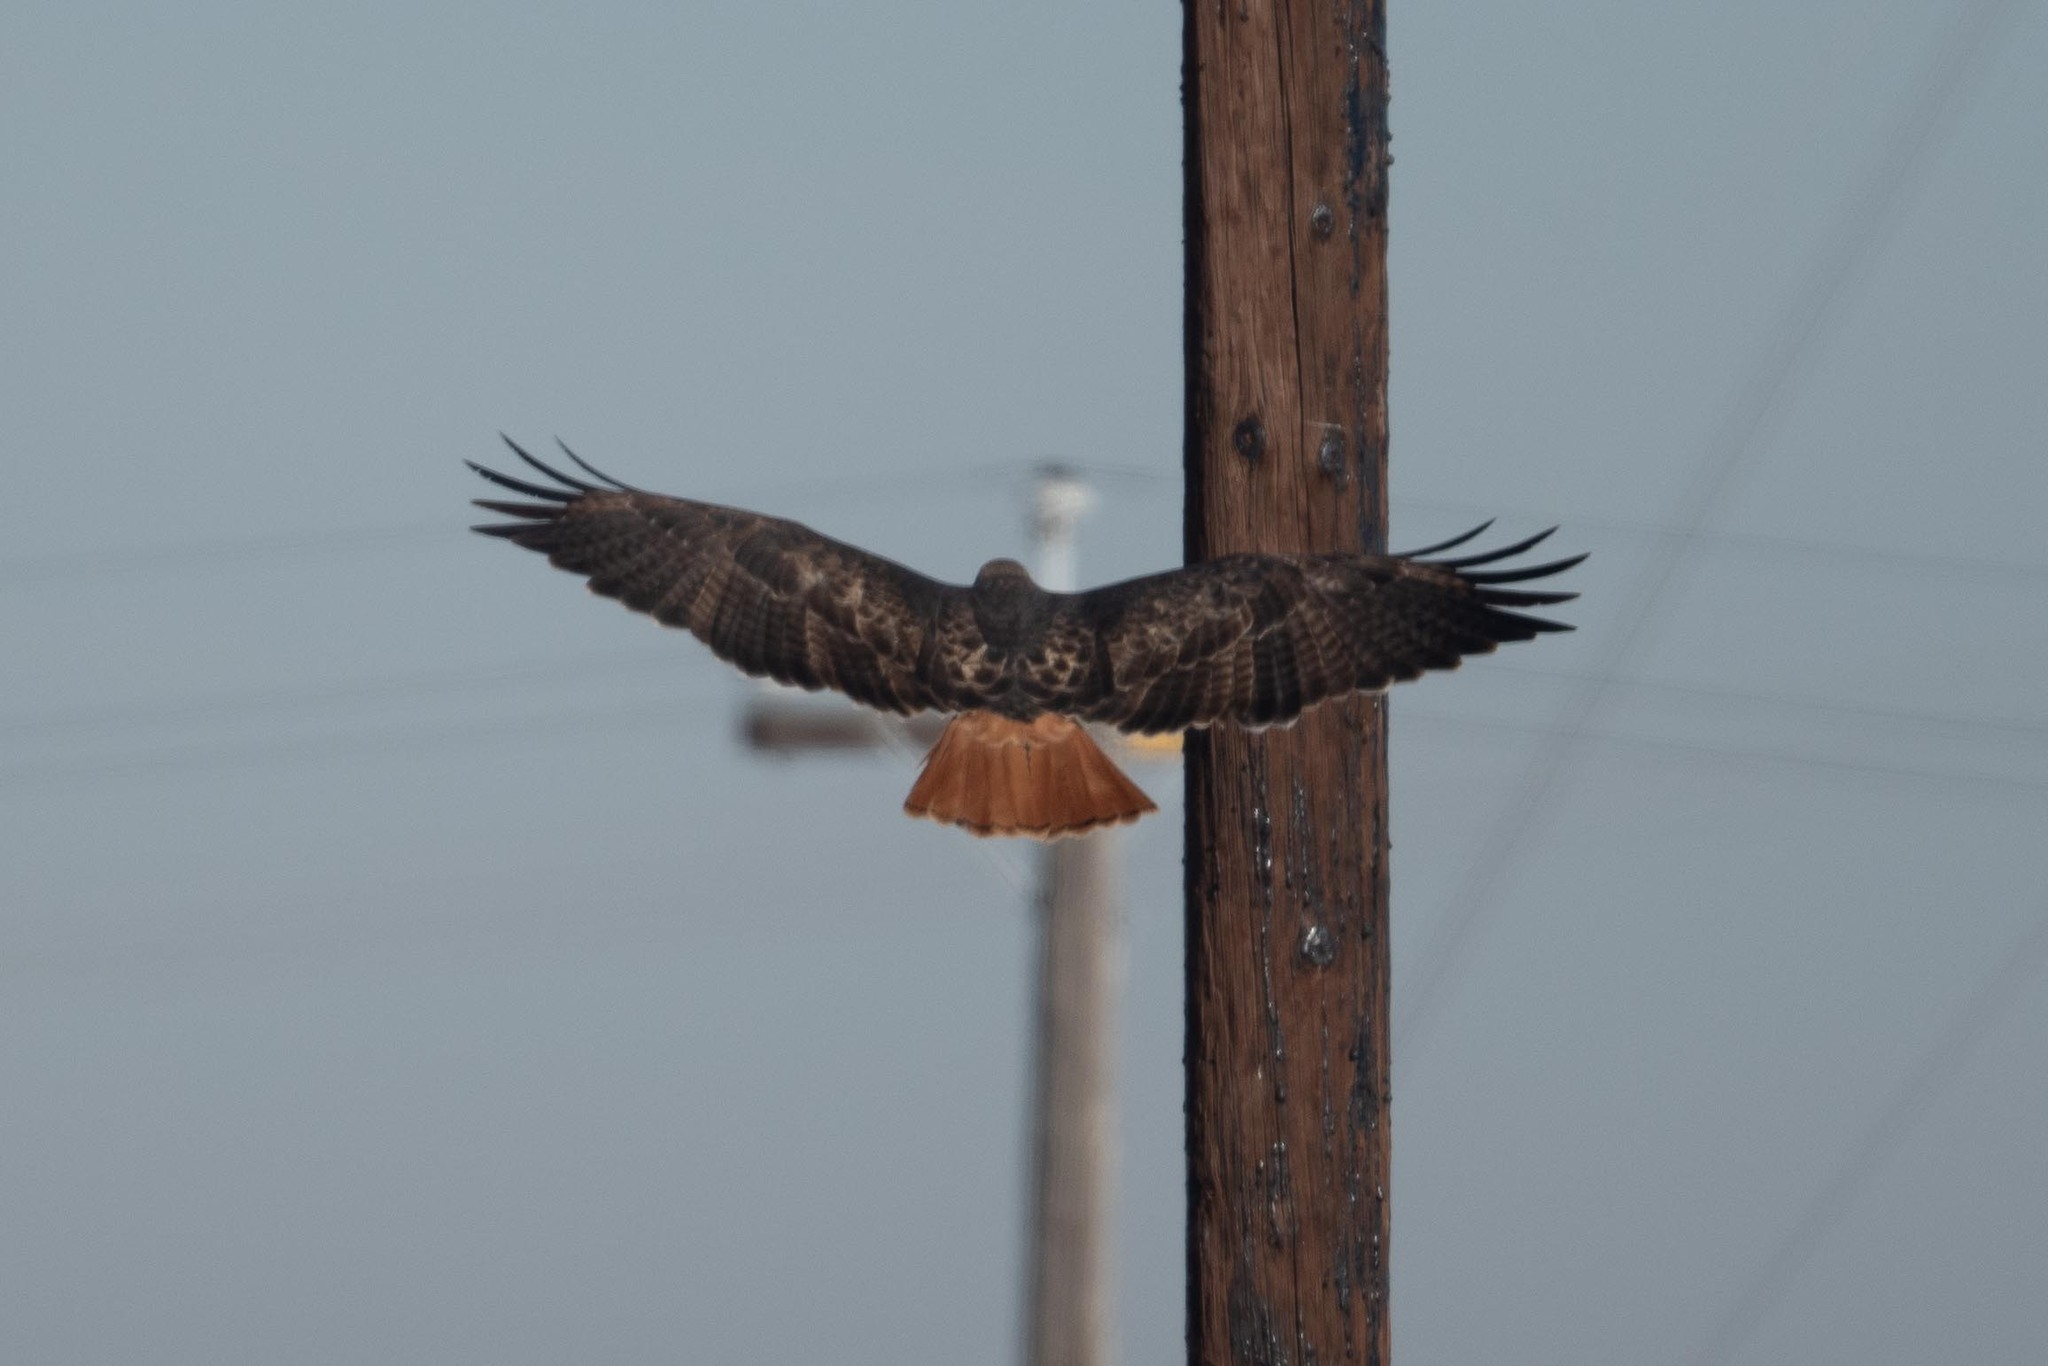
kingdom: Animalia
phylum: Chordata
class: Aves
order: Accipitriformes
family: Accipitridae
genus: Buteo
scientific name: Buteo jamaicensis
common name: Red-tailed hawk
